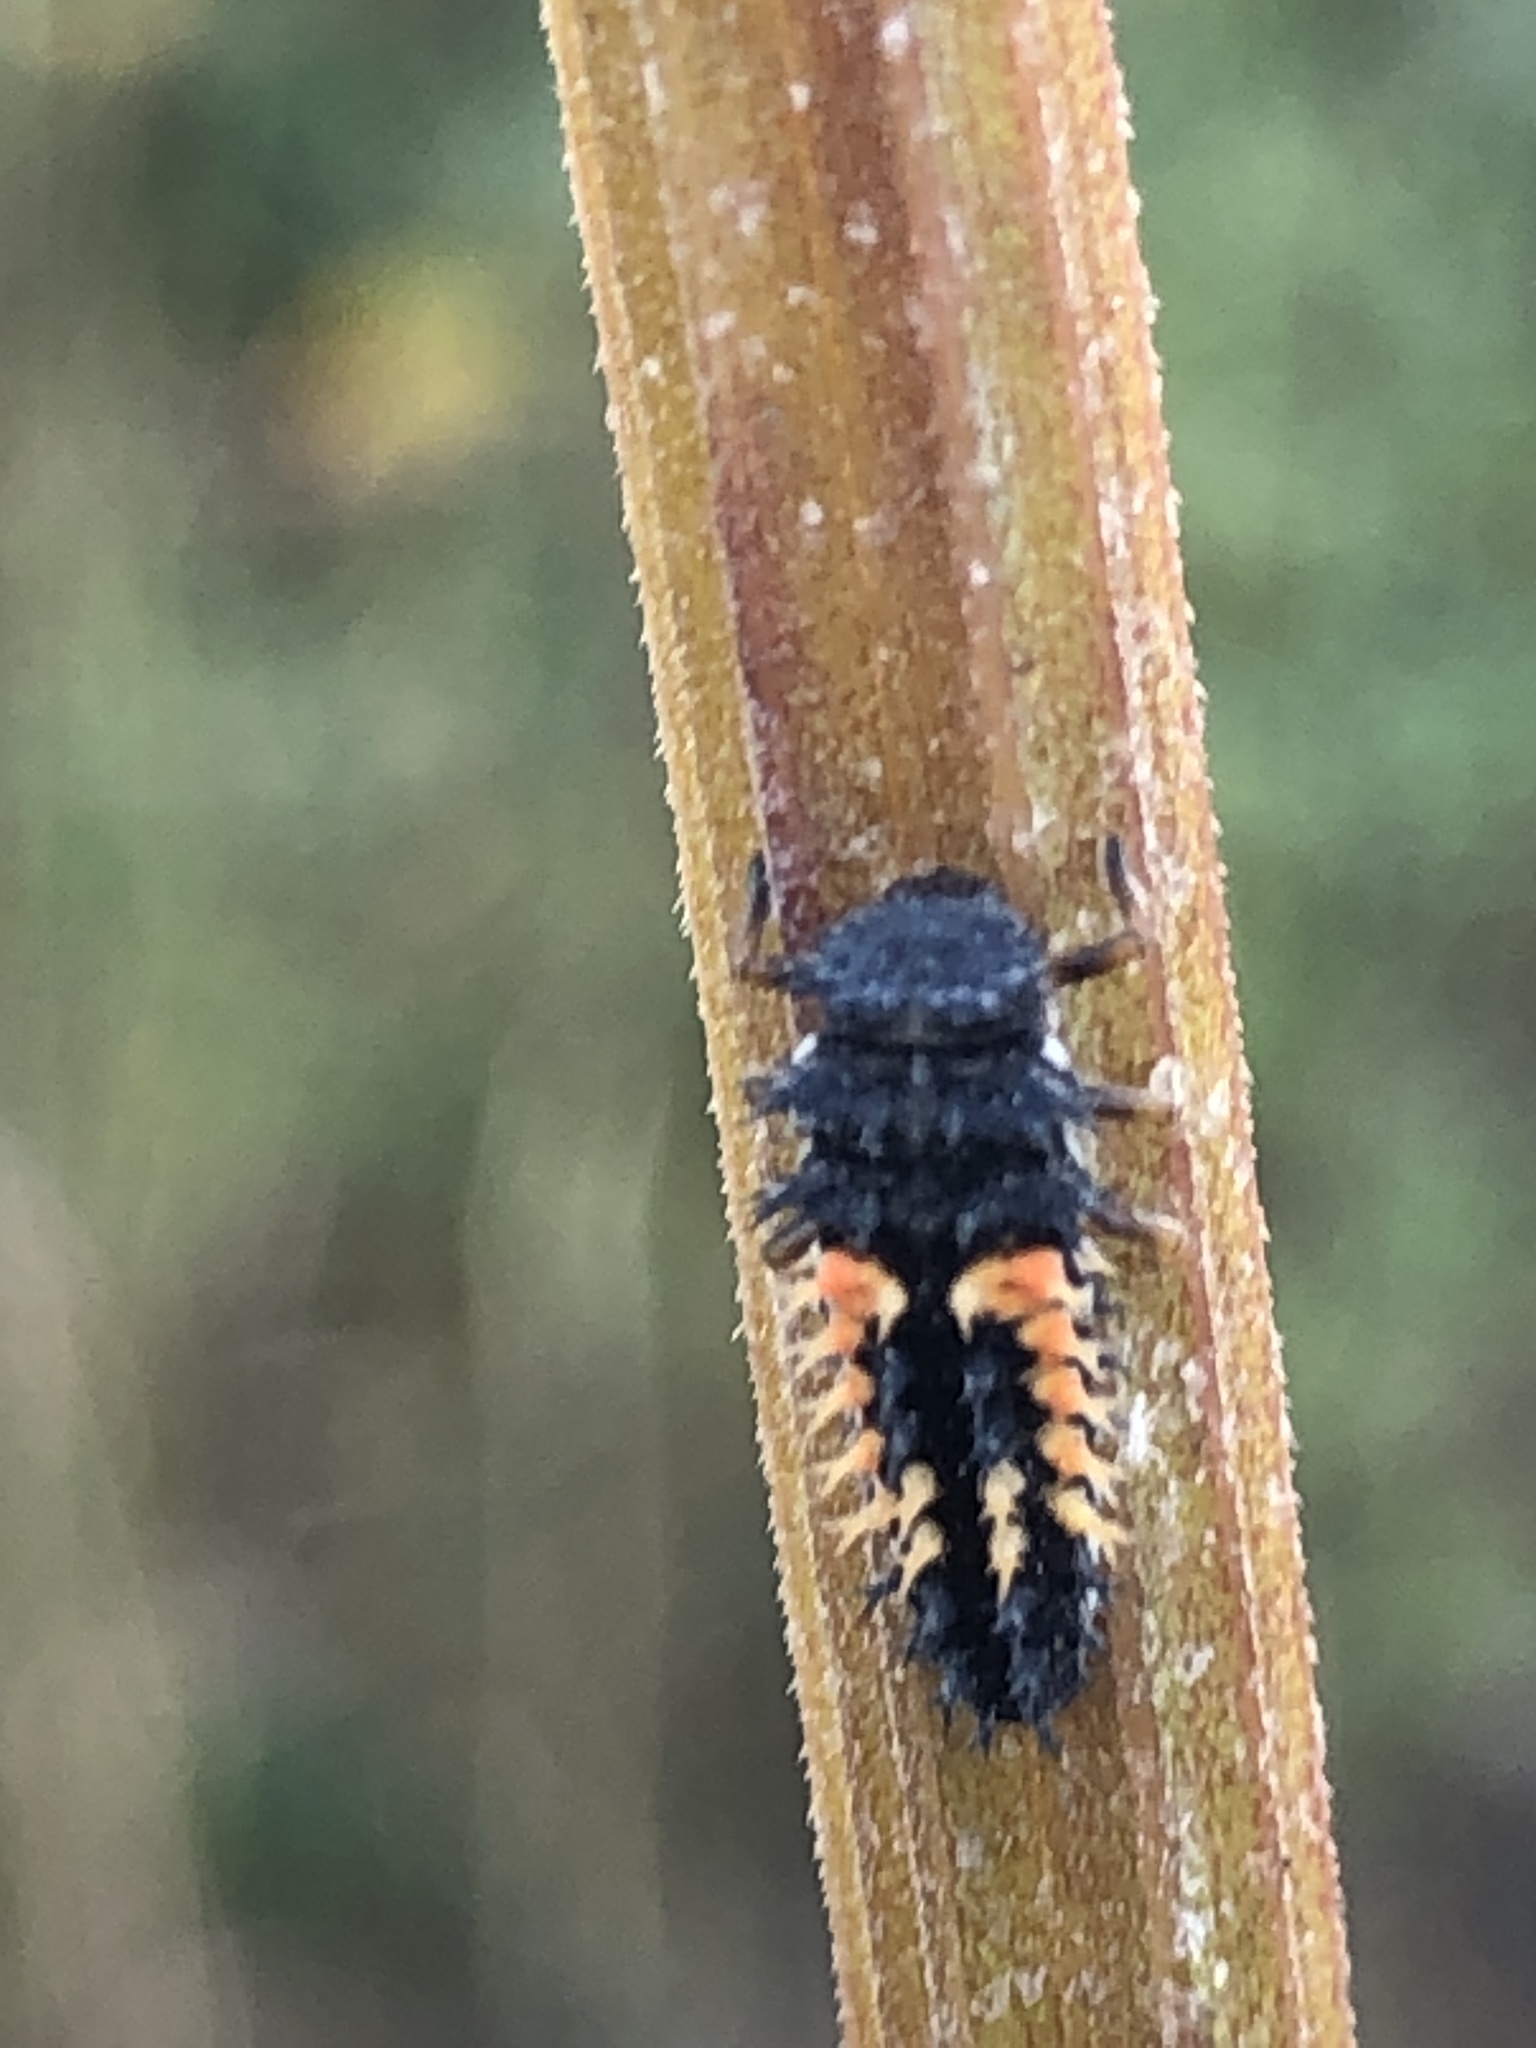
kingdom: Animalia
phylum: Arthropoda
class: Insecta
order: Coleoptera
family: Coccinellidae
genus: Harmonia
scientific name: Harmonia axyridis
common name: Harlequin ladybird
